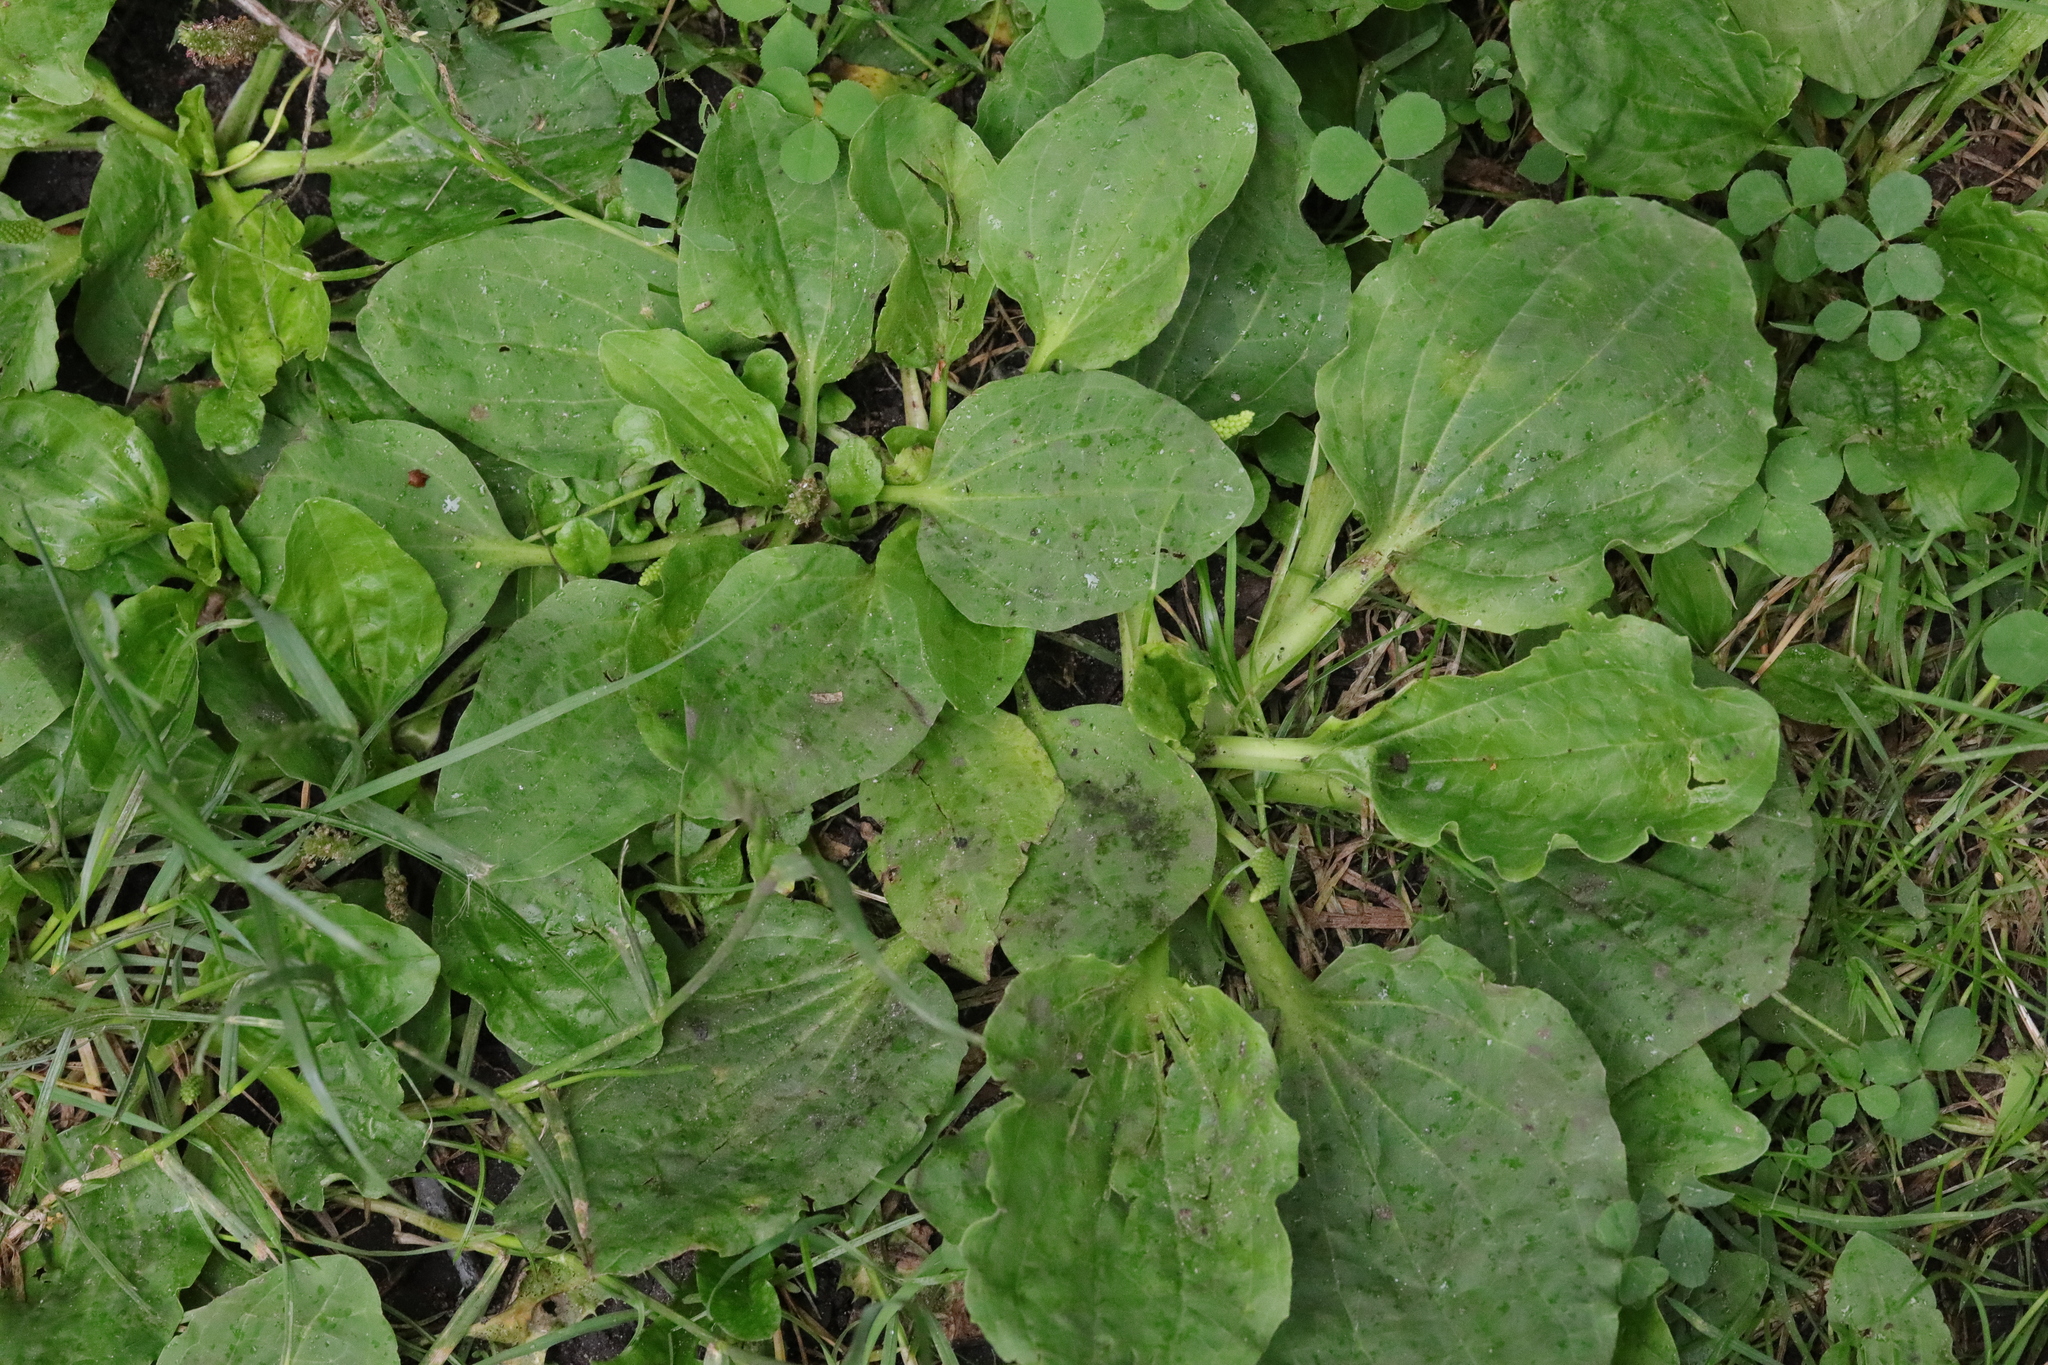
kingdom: Plantae
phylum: Tracheophyta
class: Magnoliopsida
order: Lamiales
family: Plantaginaceae
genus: Plantago
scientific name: Plantago major
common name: Common plantain
